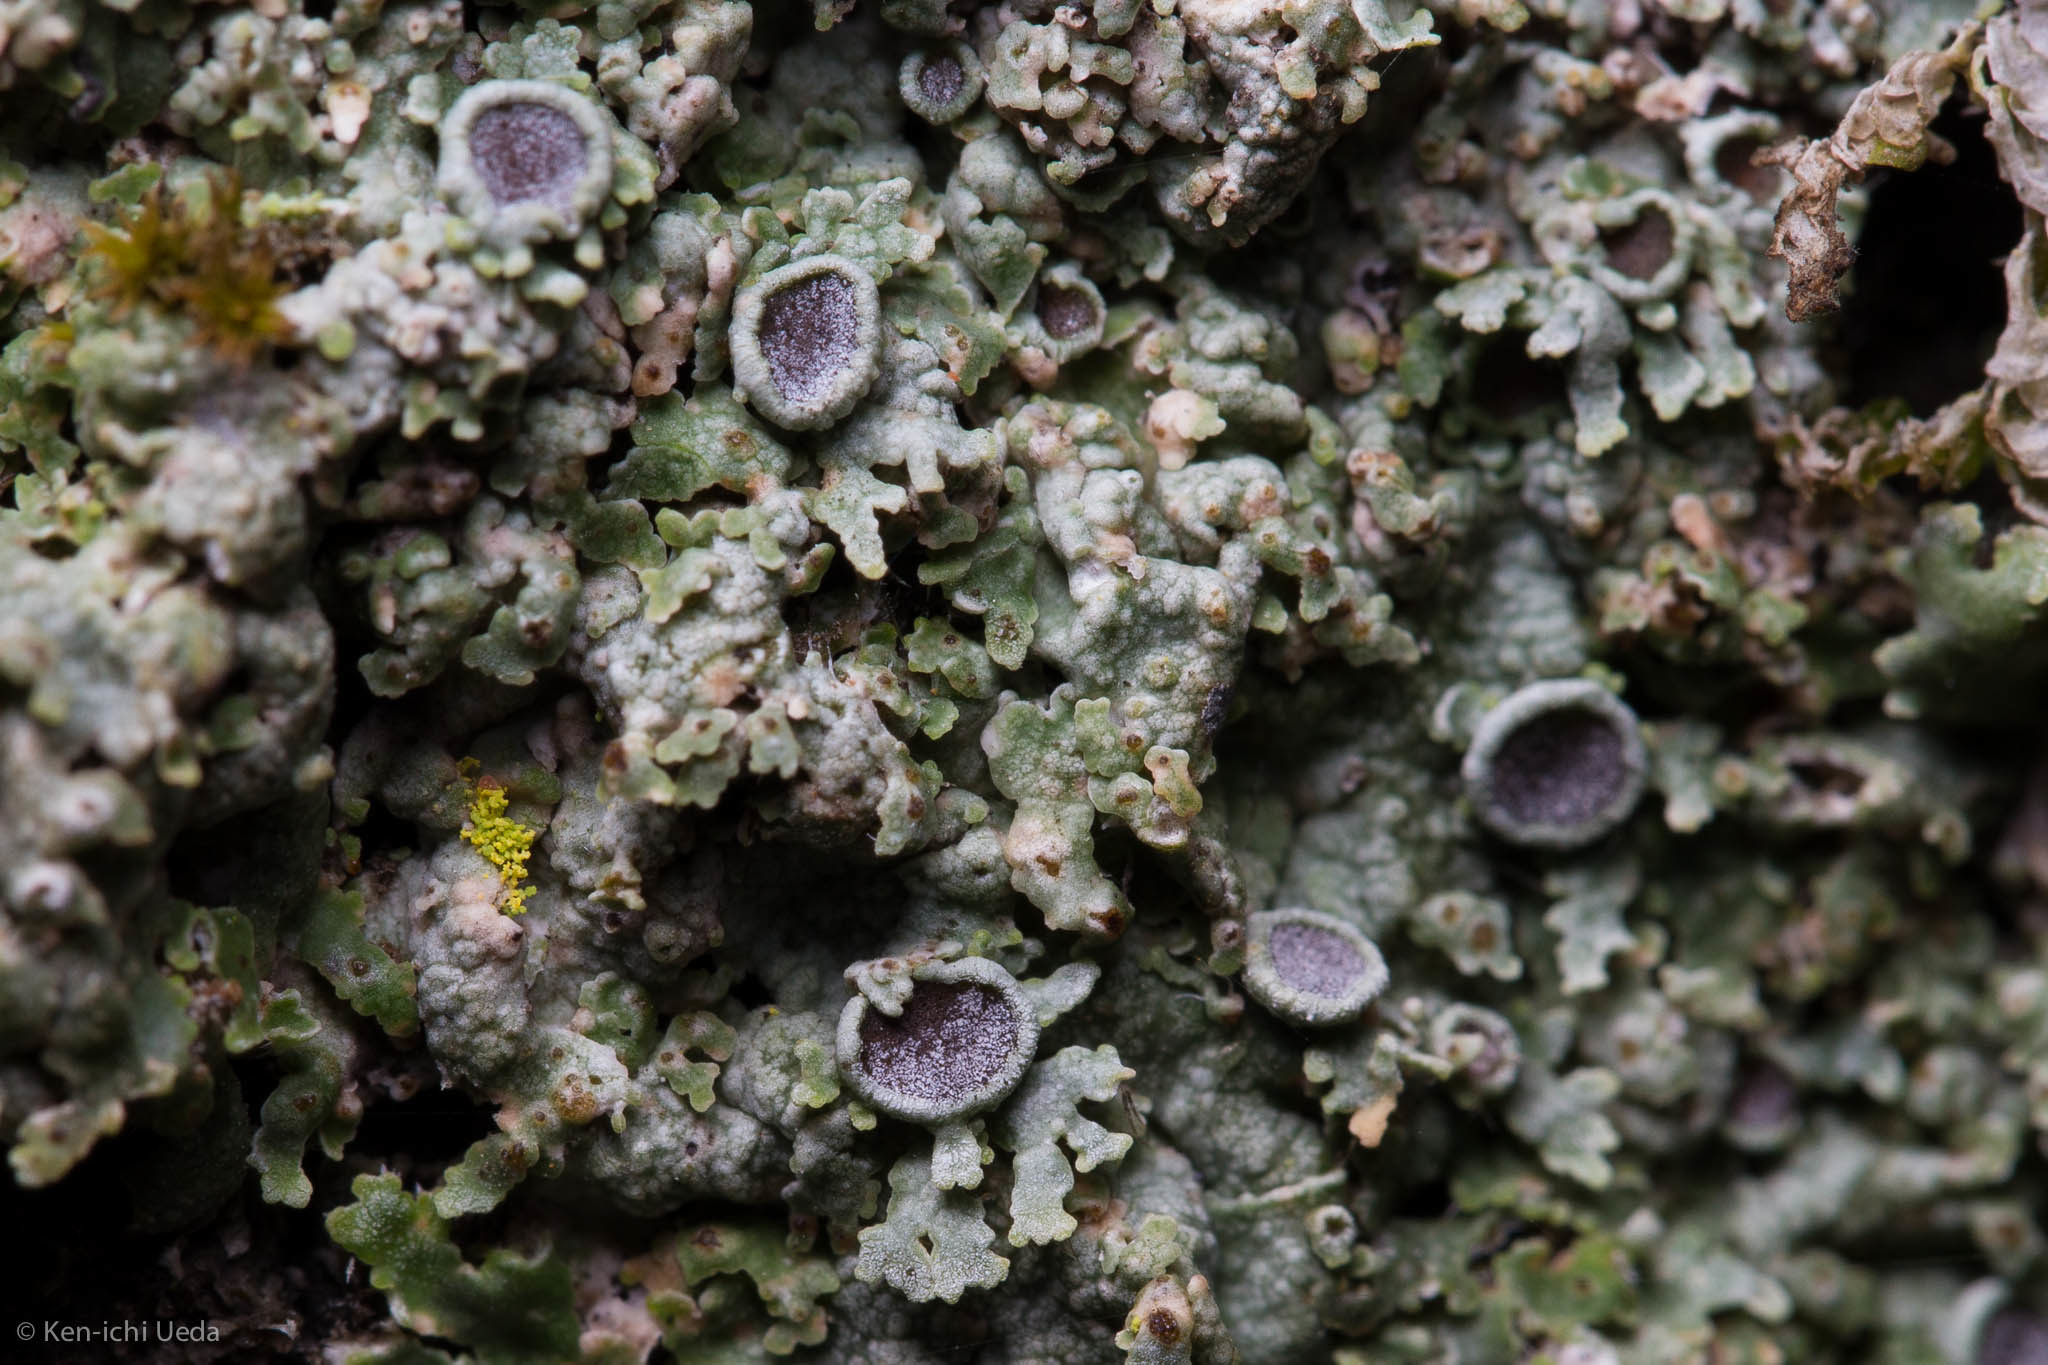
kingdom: Fungi
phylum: Ascomycota
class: Lecanoromycetes
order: Caliciales
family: Physciaceae
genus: Physconia
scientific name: Physconia americana
